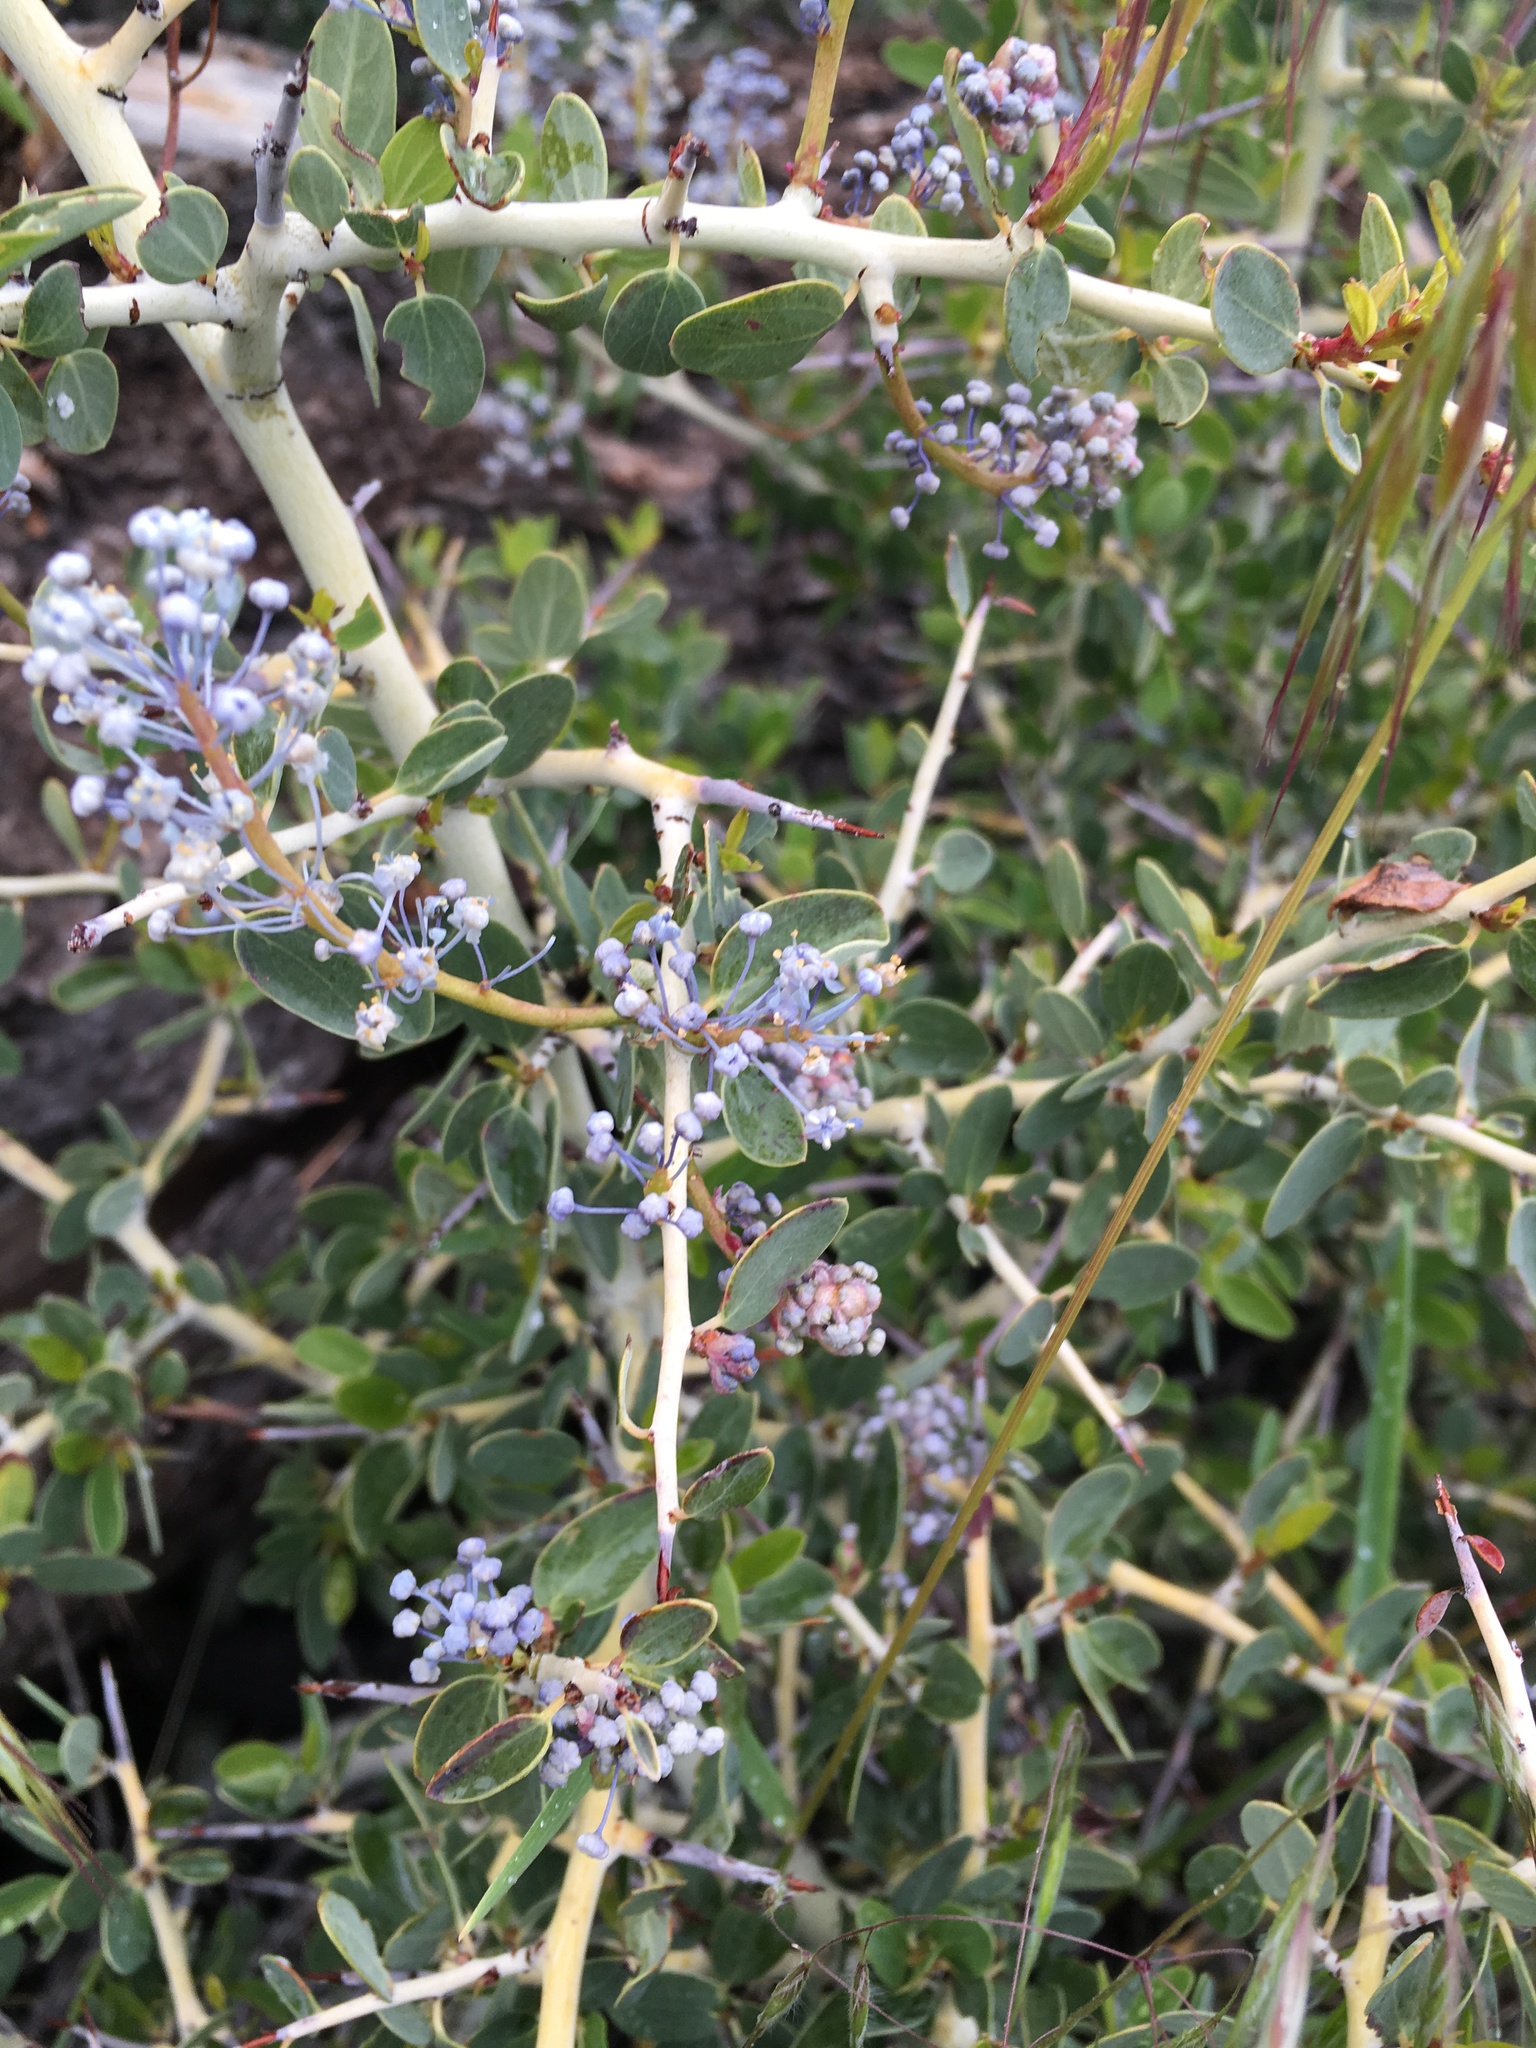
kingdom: Plantae
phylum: Tracheophyta
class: Magnoliopsida
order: Rosales
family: Rhamnaceae
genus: Ceanothus
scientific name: Ceanothus leucodermis
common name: Chaparral whitethorn
